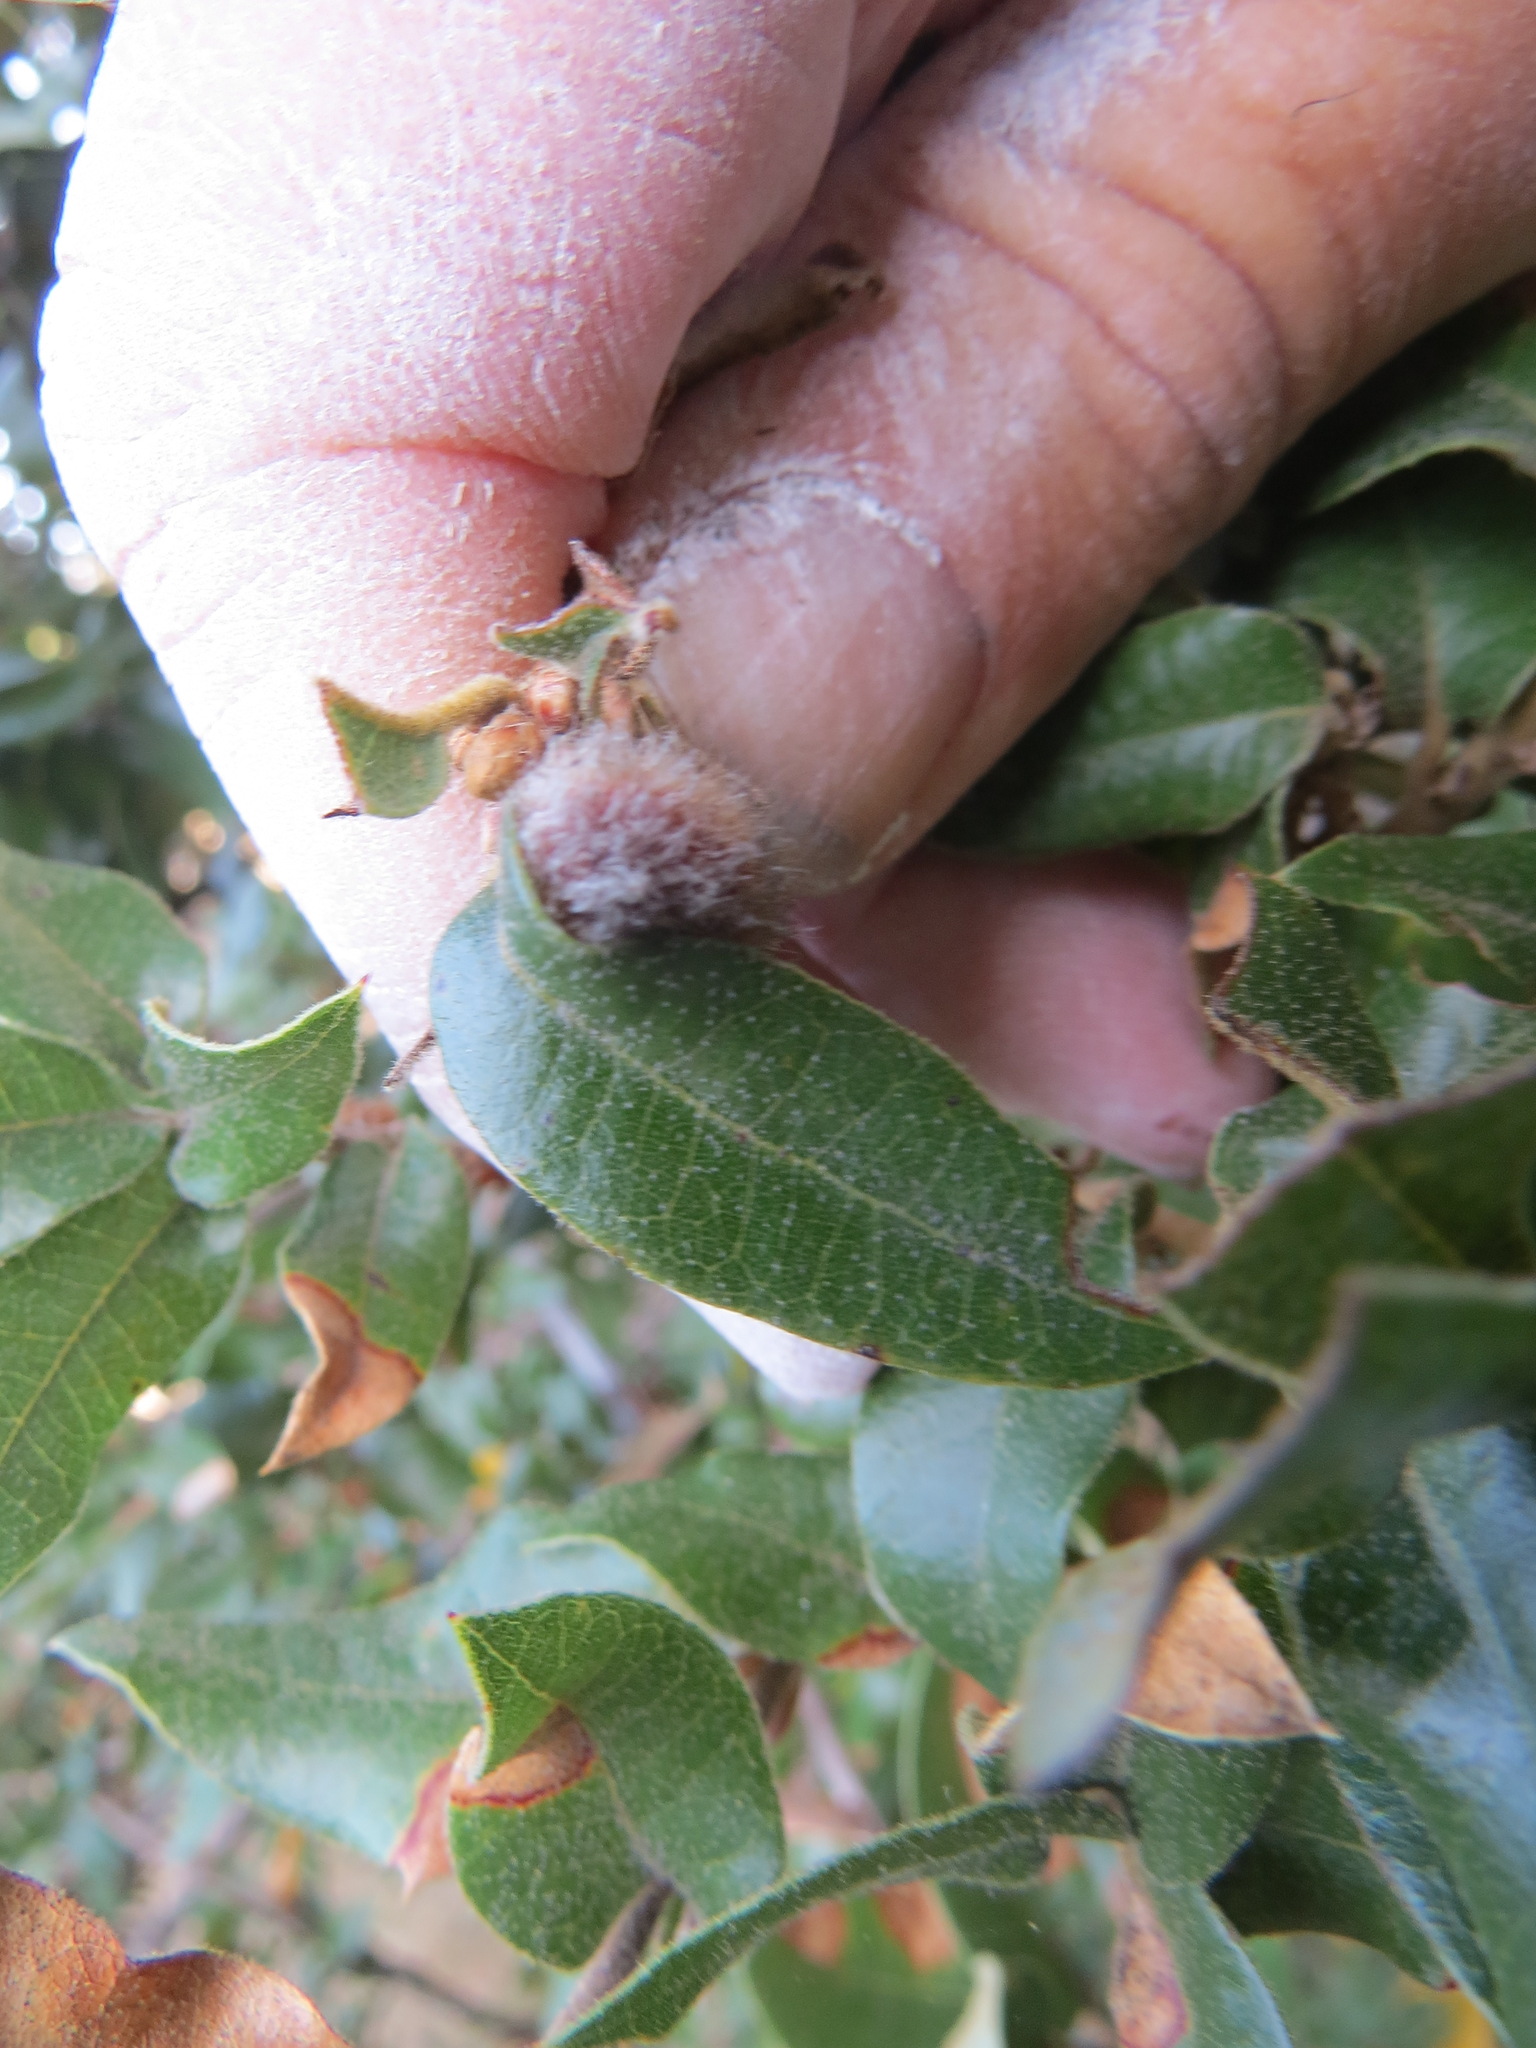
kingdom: Animalia
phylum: Arthropoda
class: Insecta
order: Hymenoptera
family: Cynipidae
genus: Disholandricus
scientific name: Disholandricus
